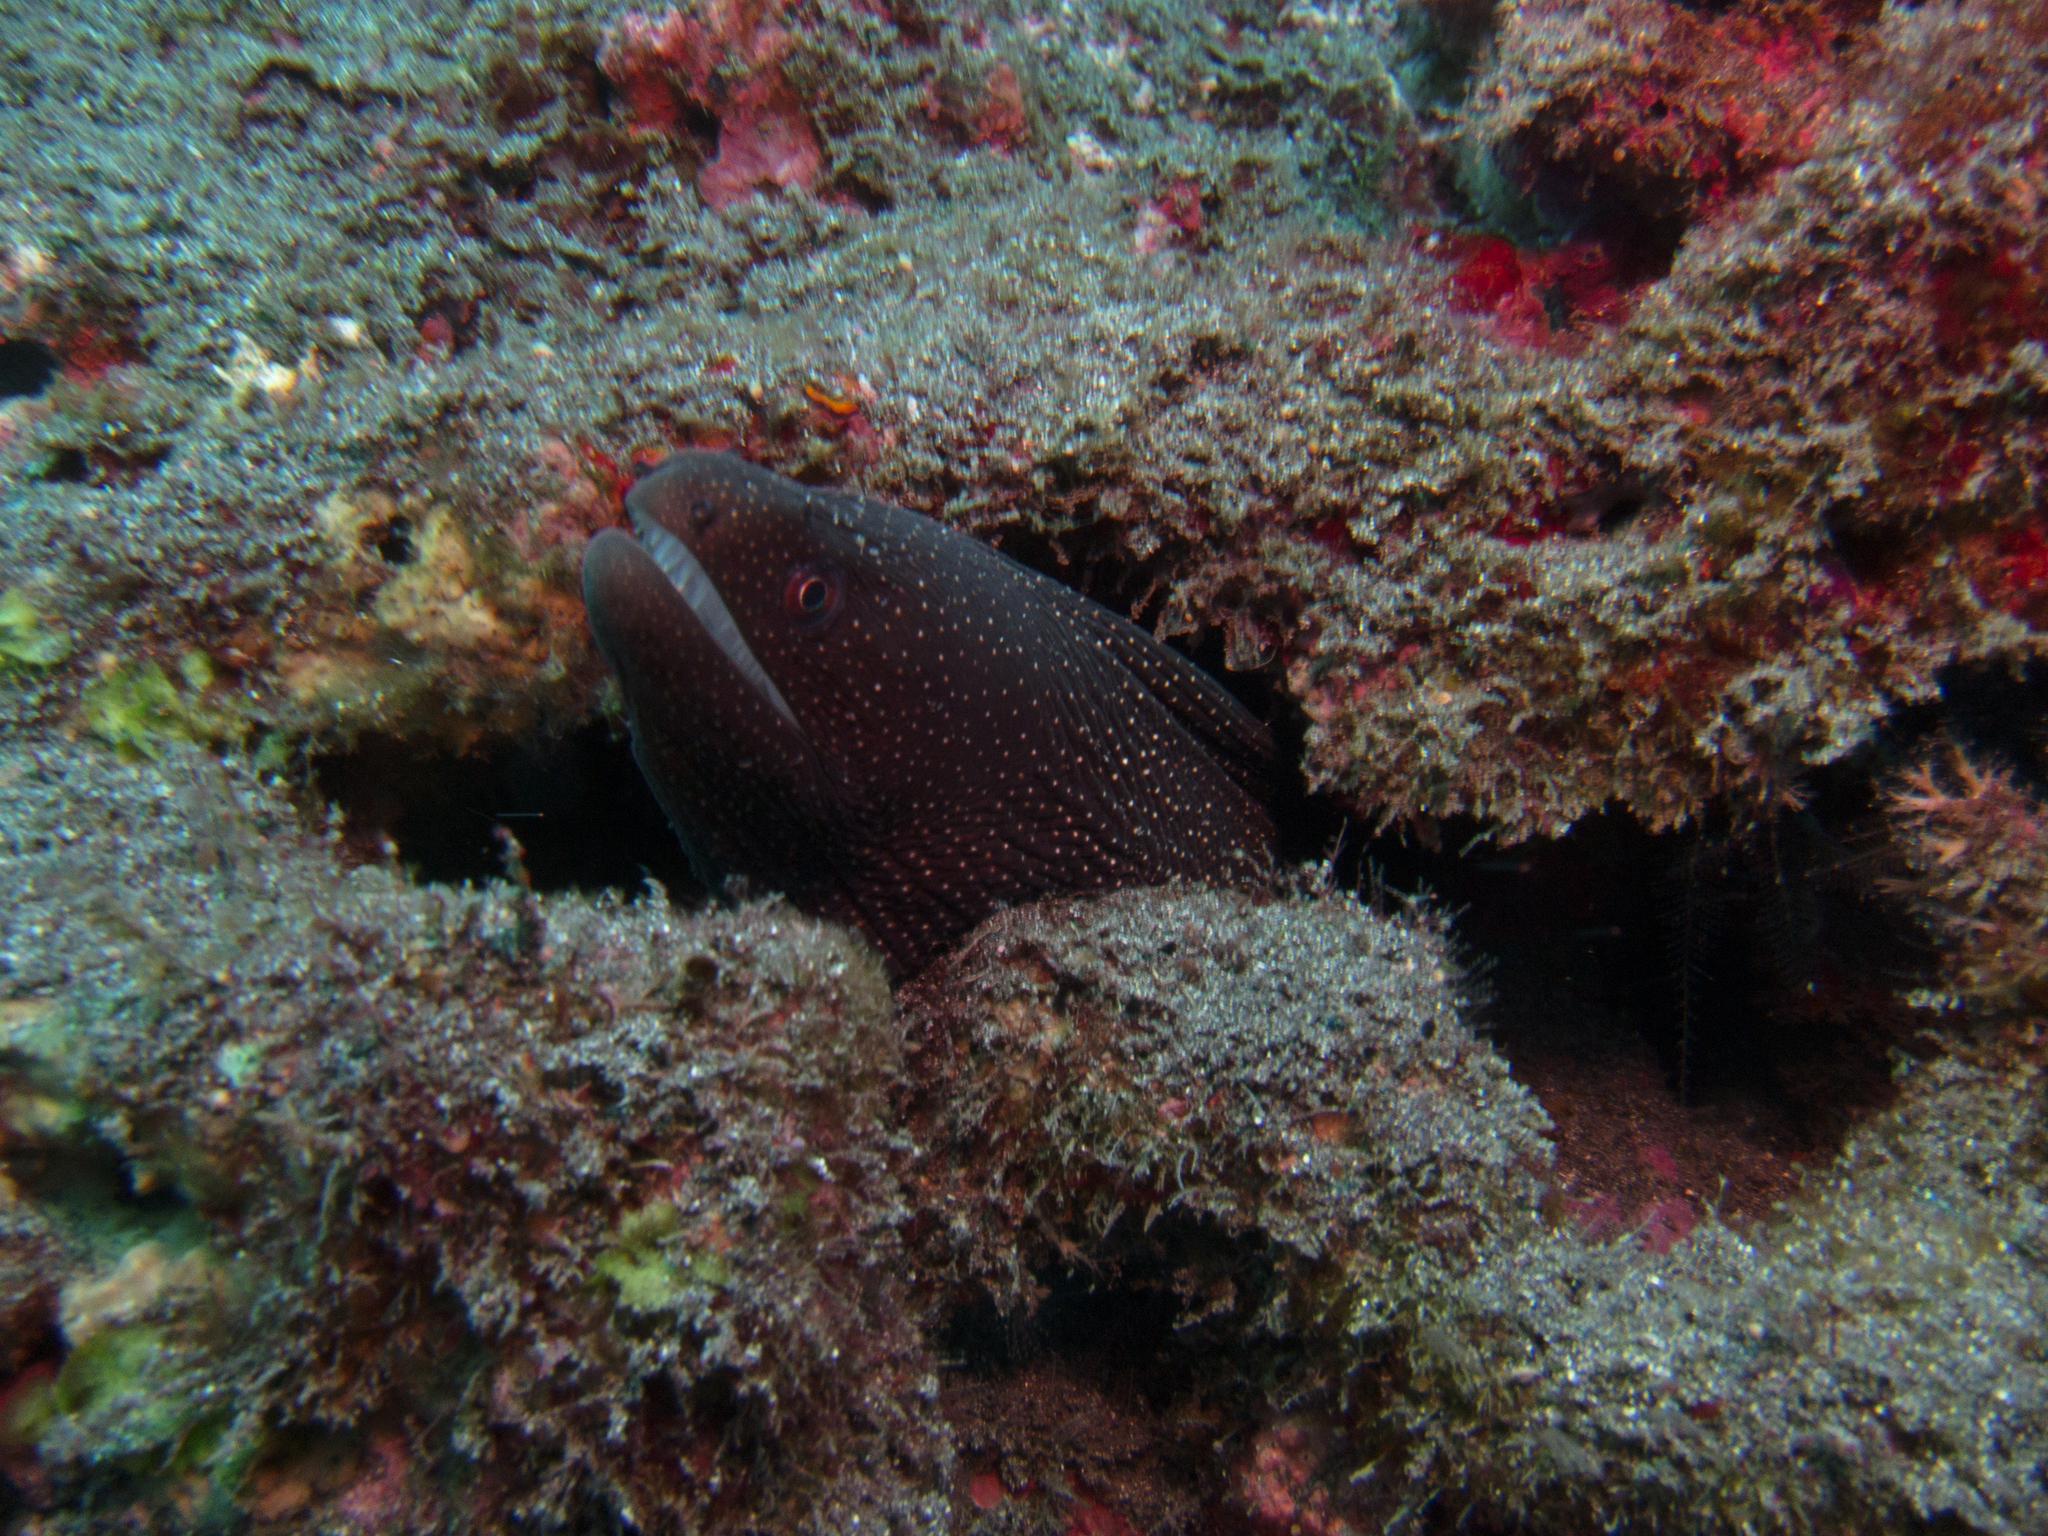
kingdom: Animalia
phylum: Chordata
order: Anguilliformes
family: Muraenidae
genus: Gymnothorax
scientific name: Gymnothorax meleagris
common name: Guineafowl moray
